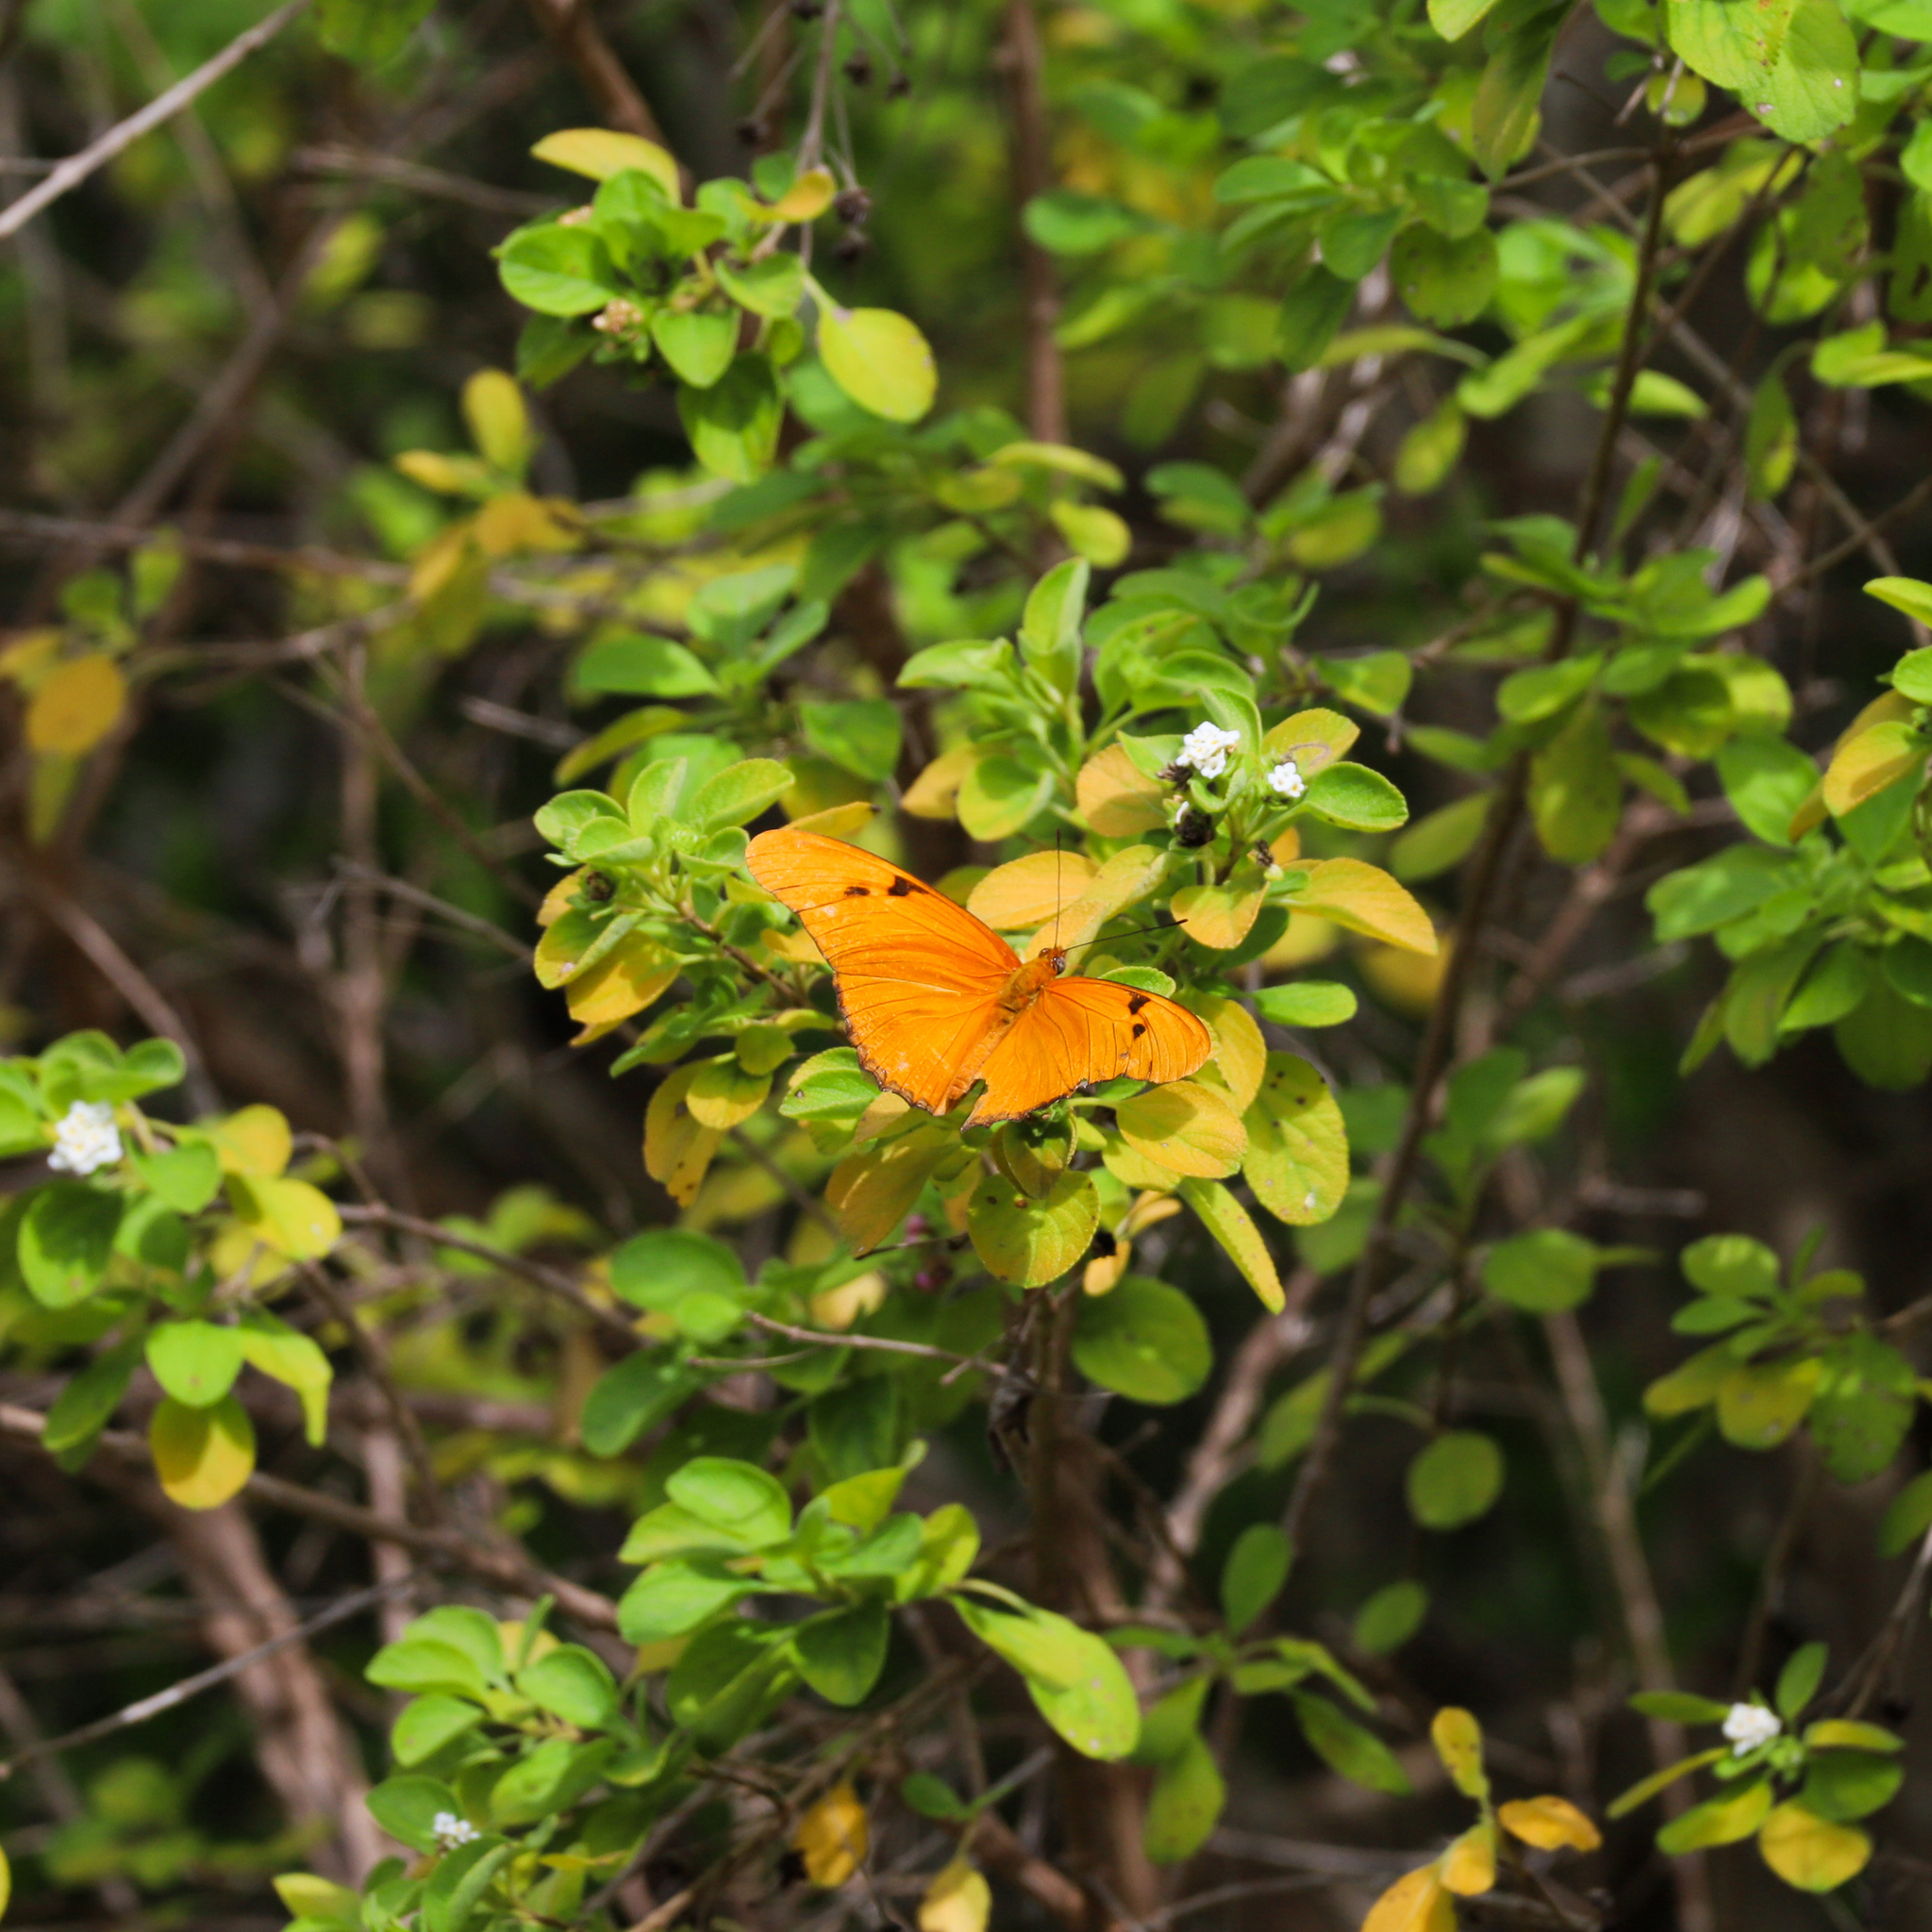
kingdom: Animalia
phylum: Arthropoda
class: Insecta
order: Lepidoptera
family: Nymphalidae
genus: Dryas
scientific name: Dryas iulia
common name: Flambeau
